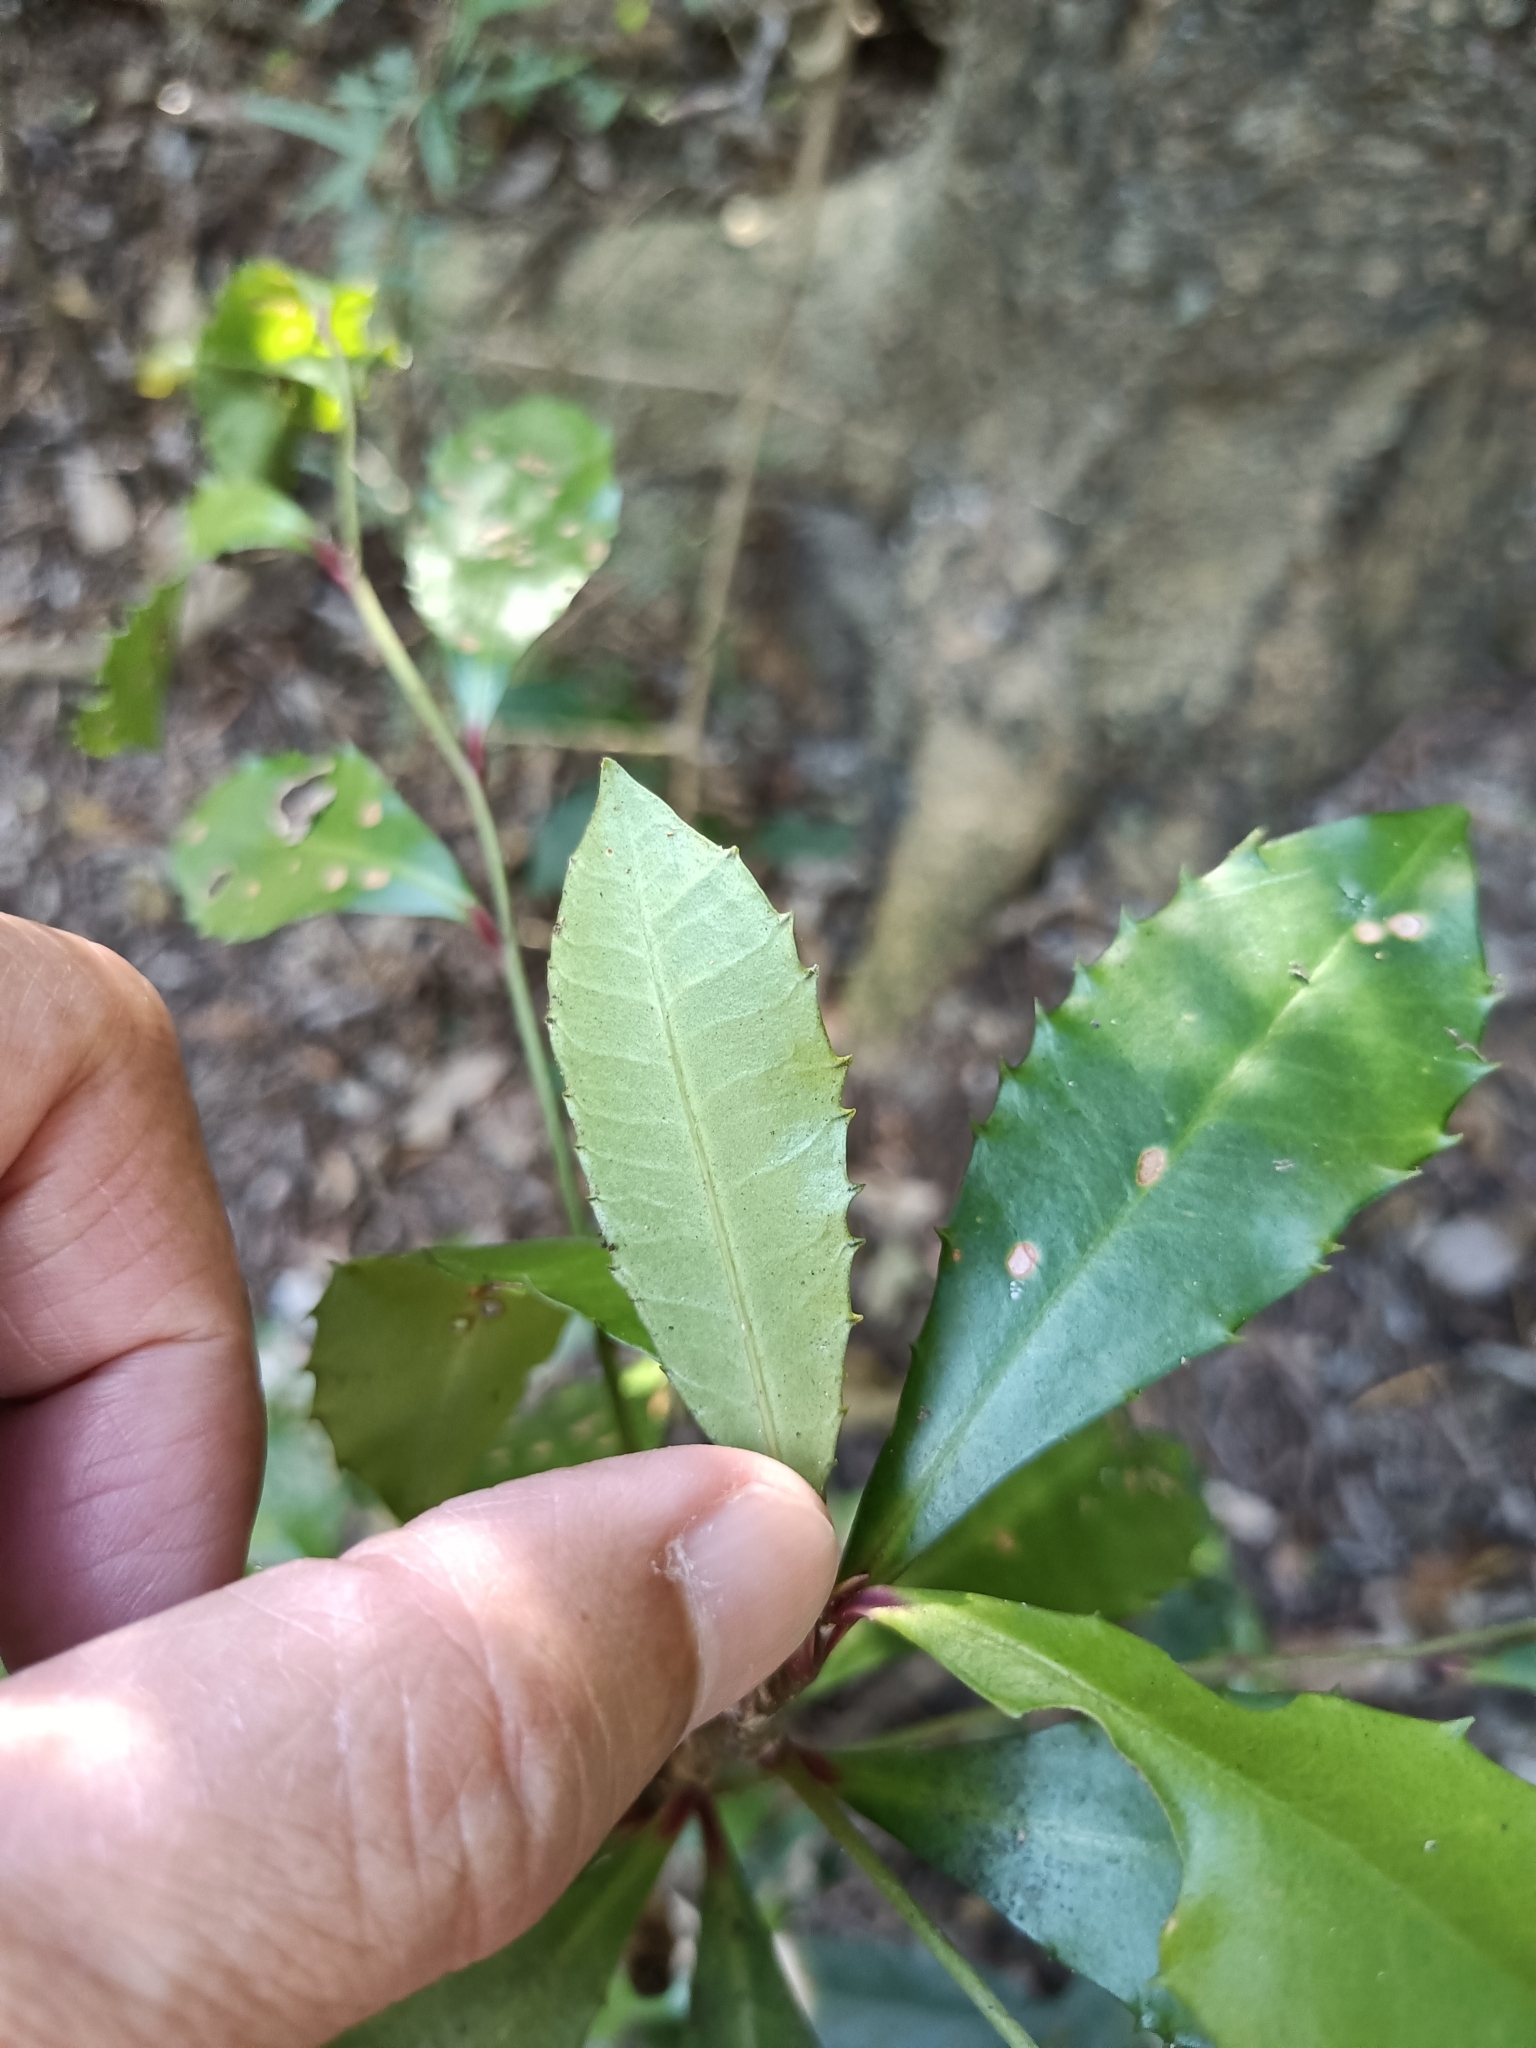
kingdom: Plantae
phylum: Tracheophyta
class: Magnoliopsida
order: Ericales
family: Primulaceae
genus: Ardisia
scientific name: Ardisia cornudentata
